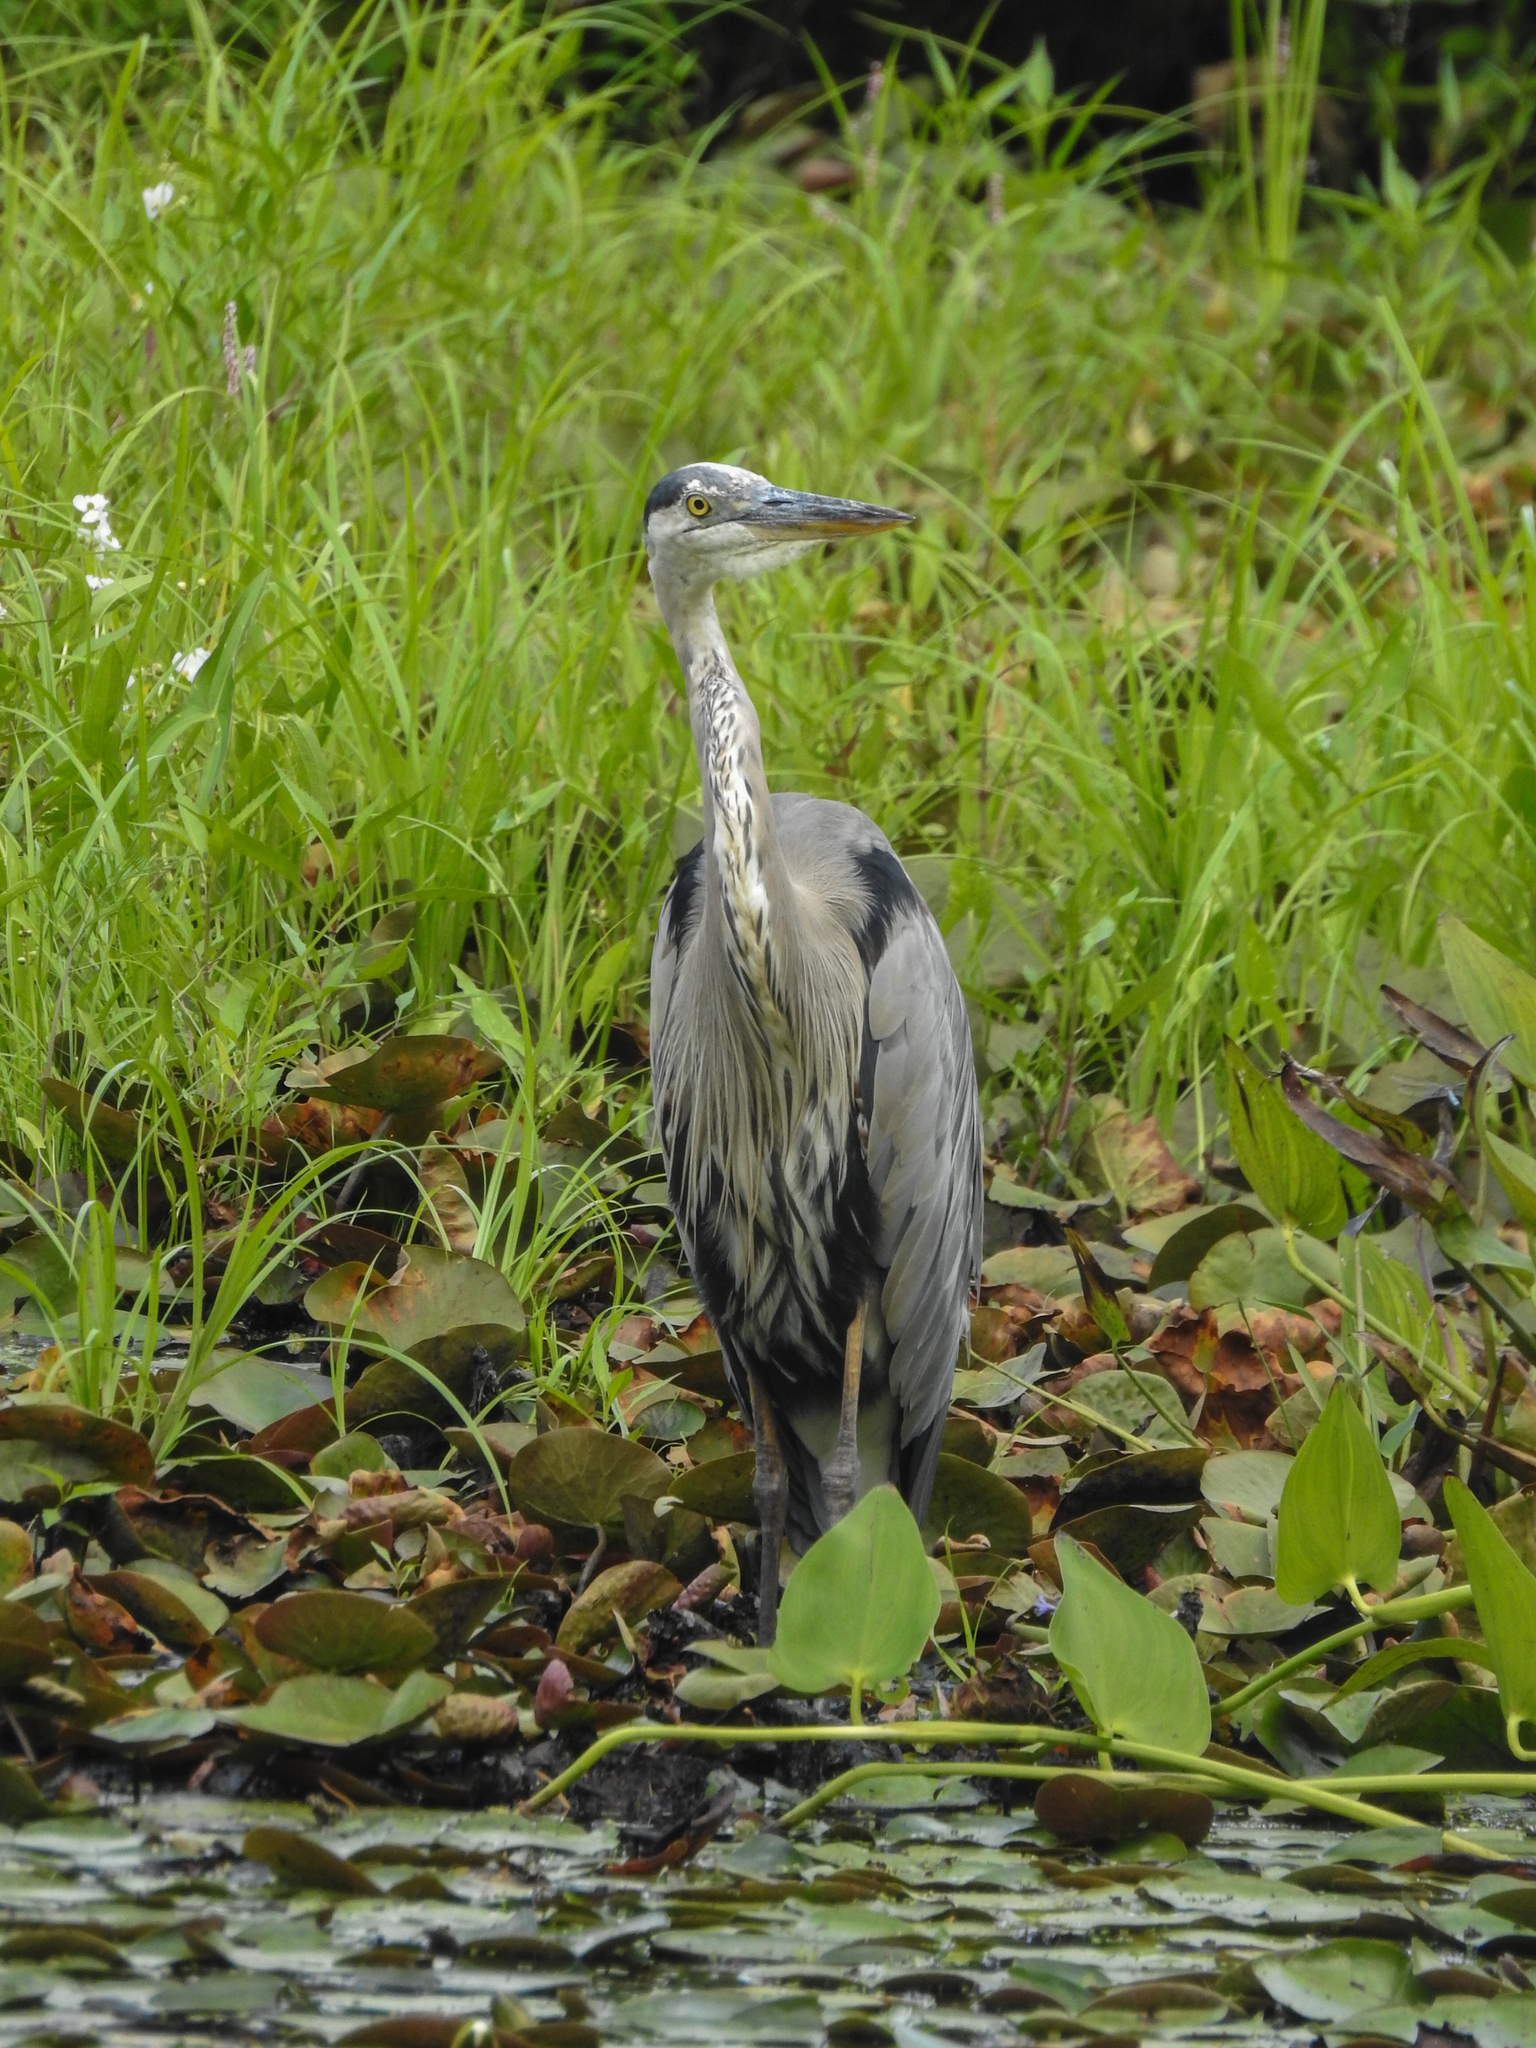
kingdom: Animalia
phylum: Chordata
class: Aves
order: Pelecaniformes
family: Ardeidae
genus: Ardea
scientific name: Ardea herodias
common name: Great blue heron
